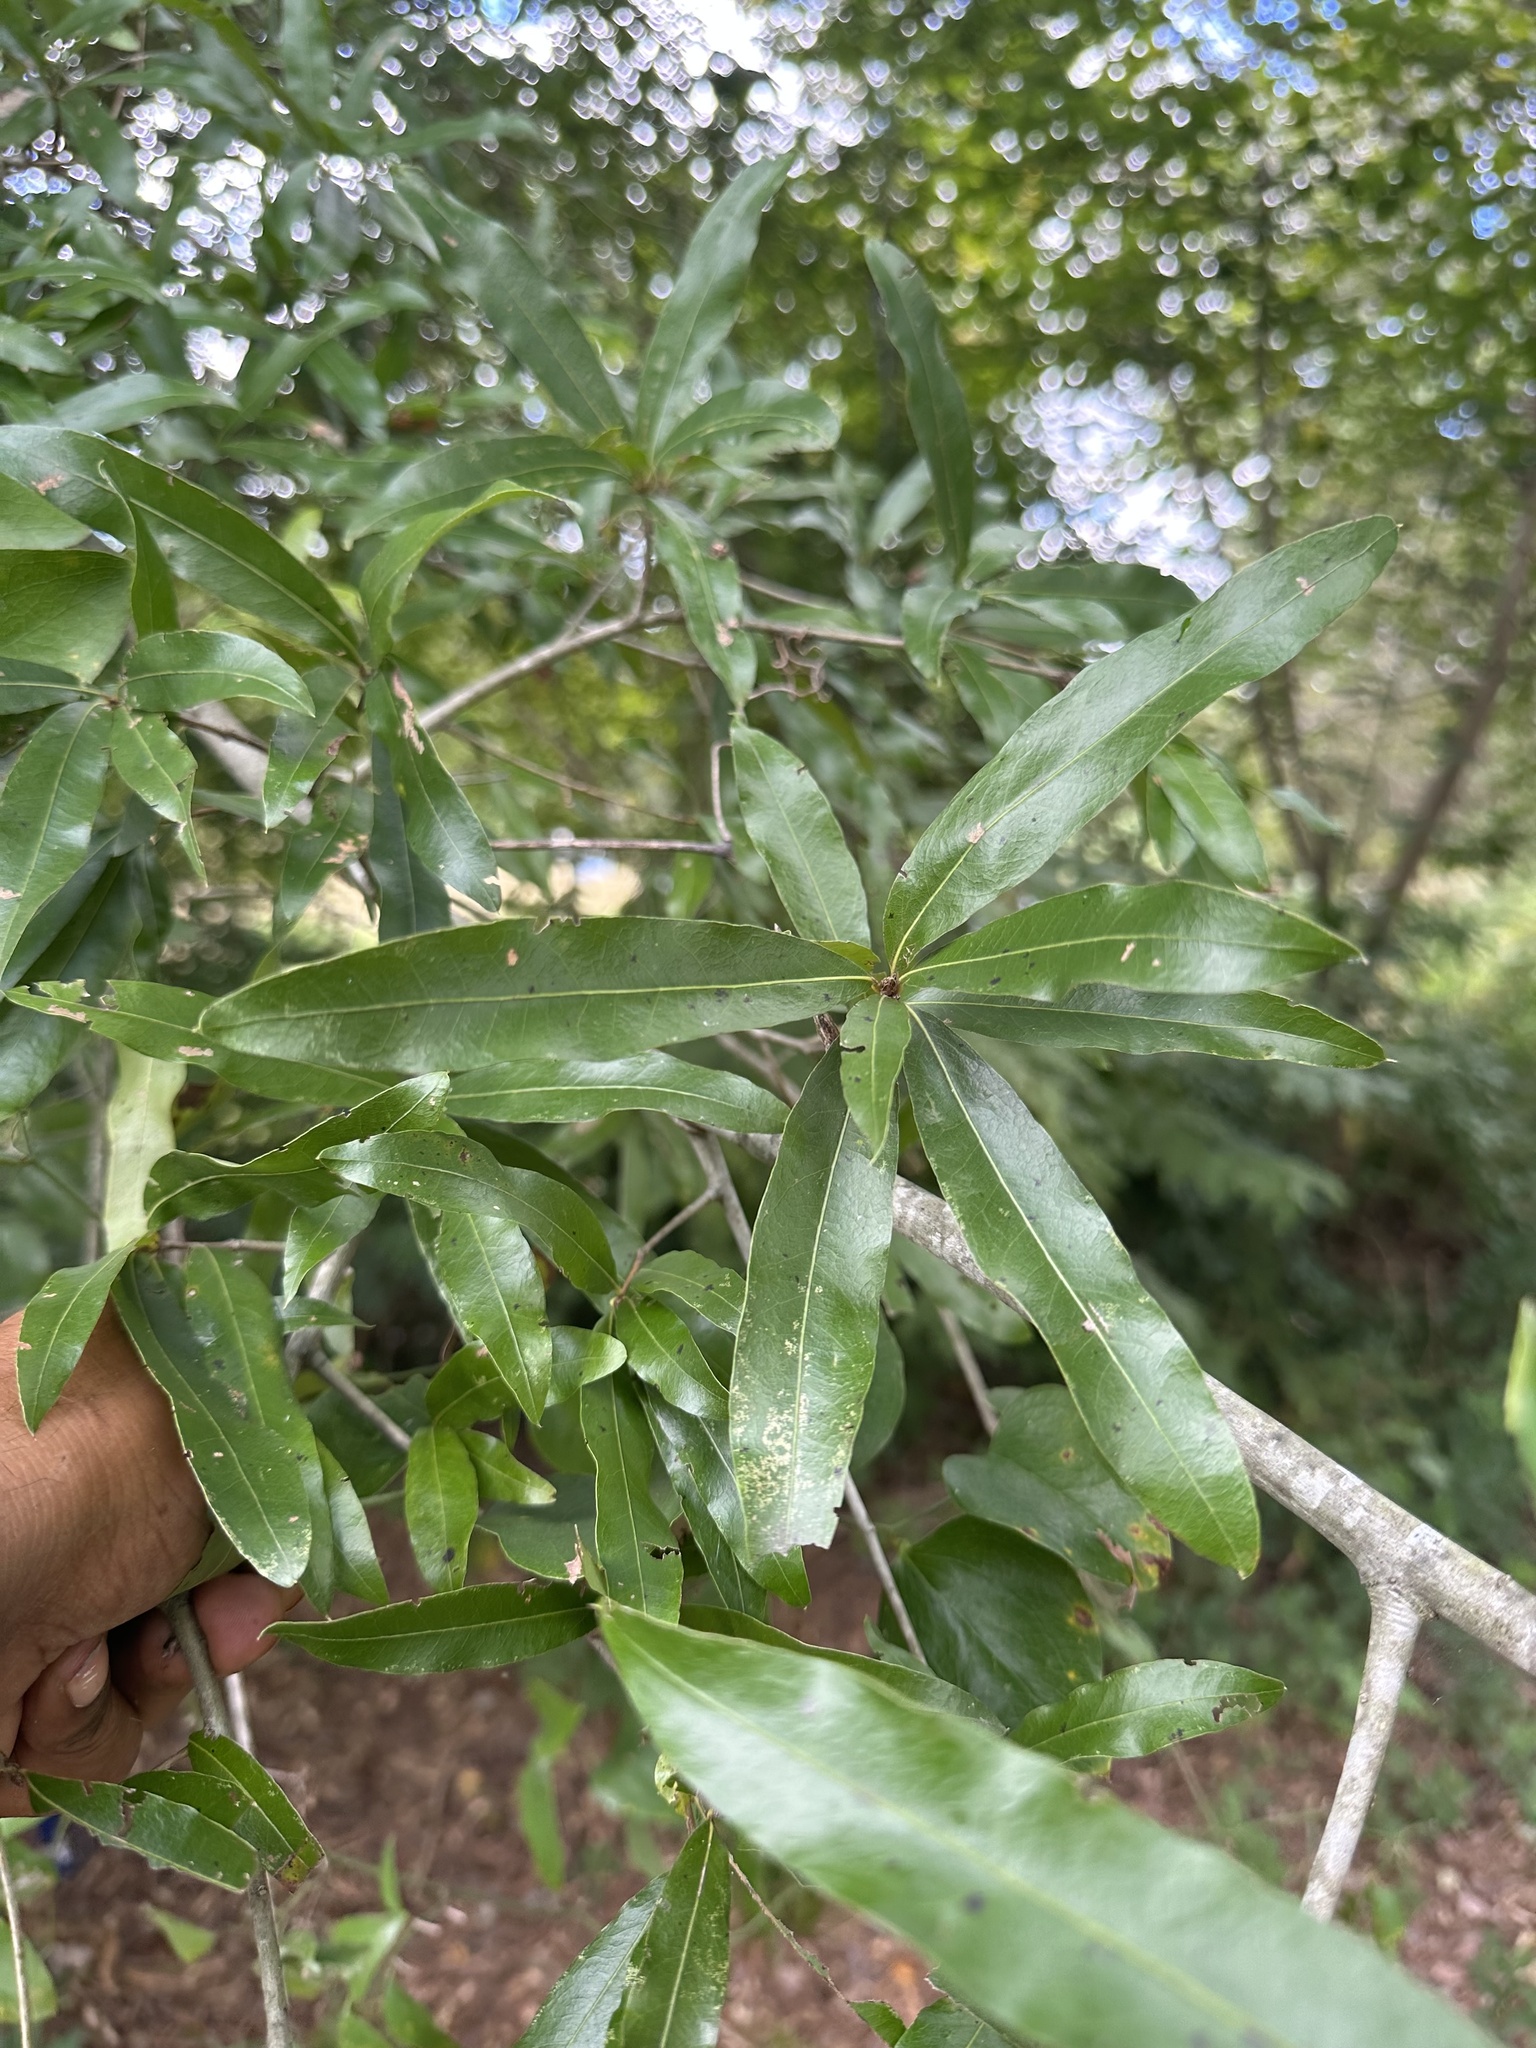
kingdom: Plantae
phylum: Tracheophyta
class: Magnoliopsida
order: Fagales
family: Fagaceae
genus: Quercus
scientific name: Quercus phellos
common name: Willow oak
